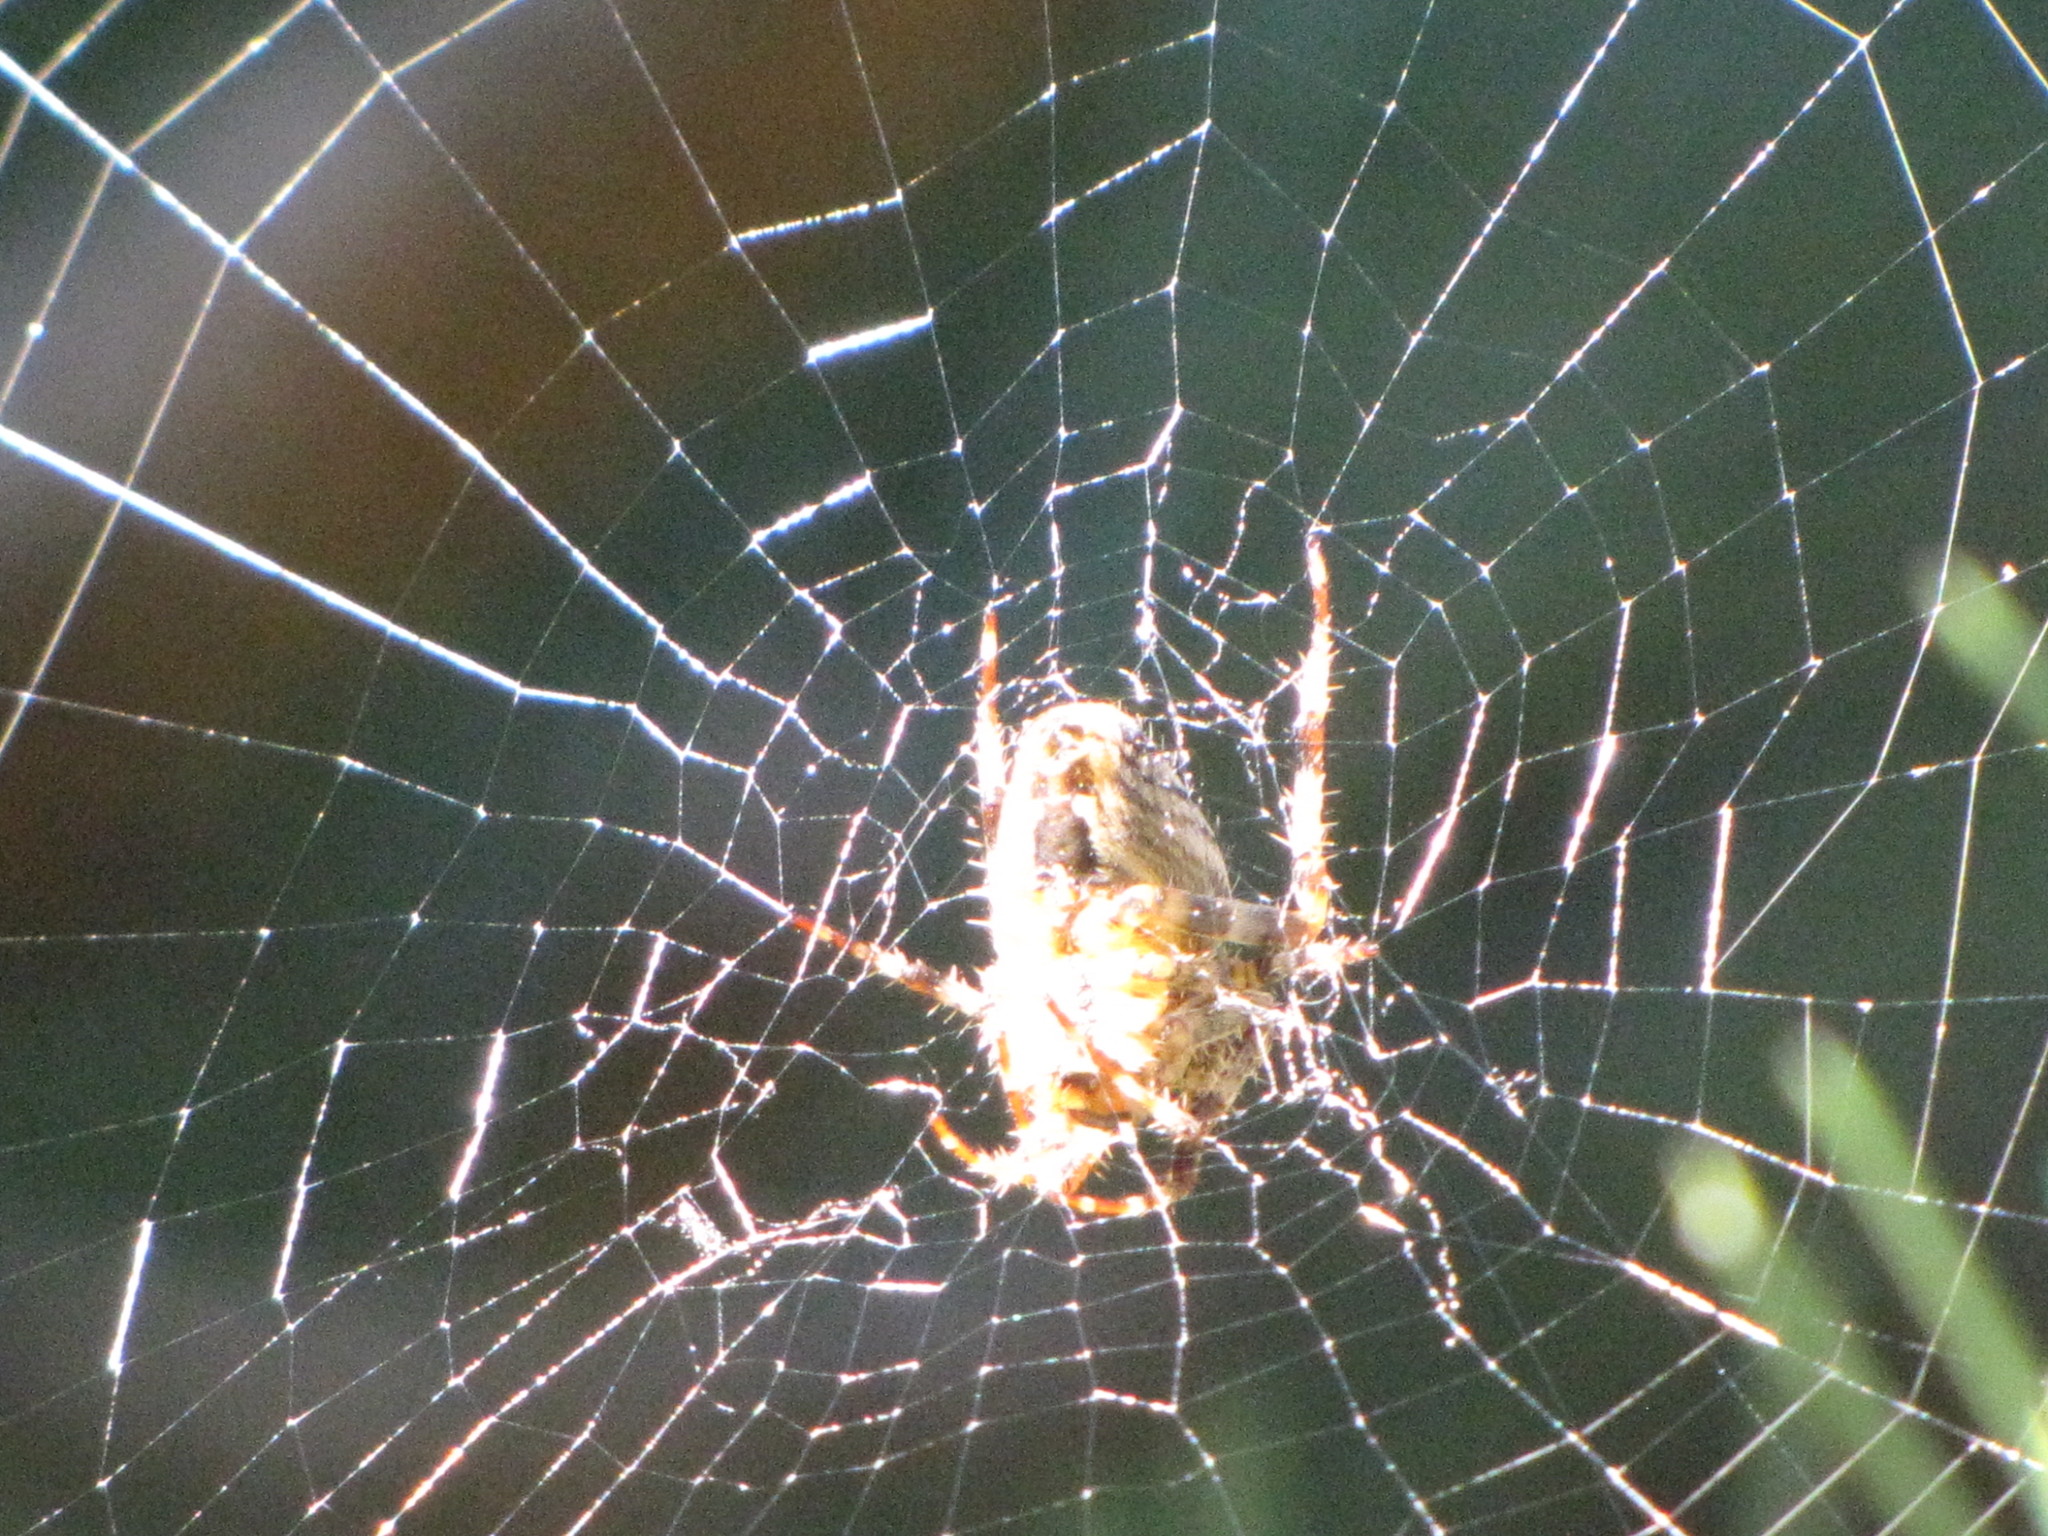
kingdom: Animalia
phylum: Arthropoda
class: Arachnida
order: Araneae
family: Araneidae
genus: Araneus
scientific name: Araneus diadematus
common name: Cross orbweaver
